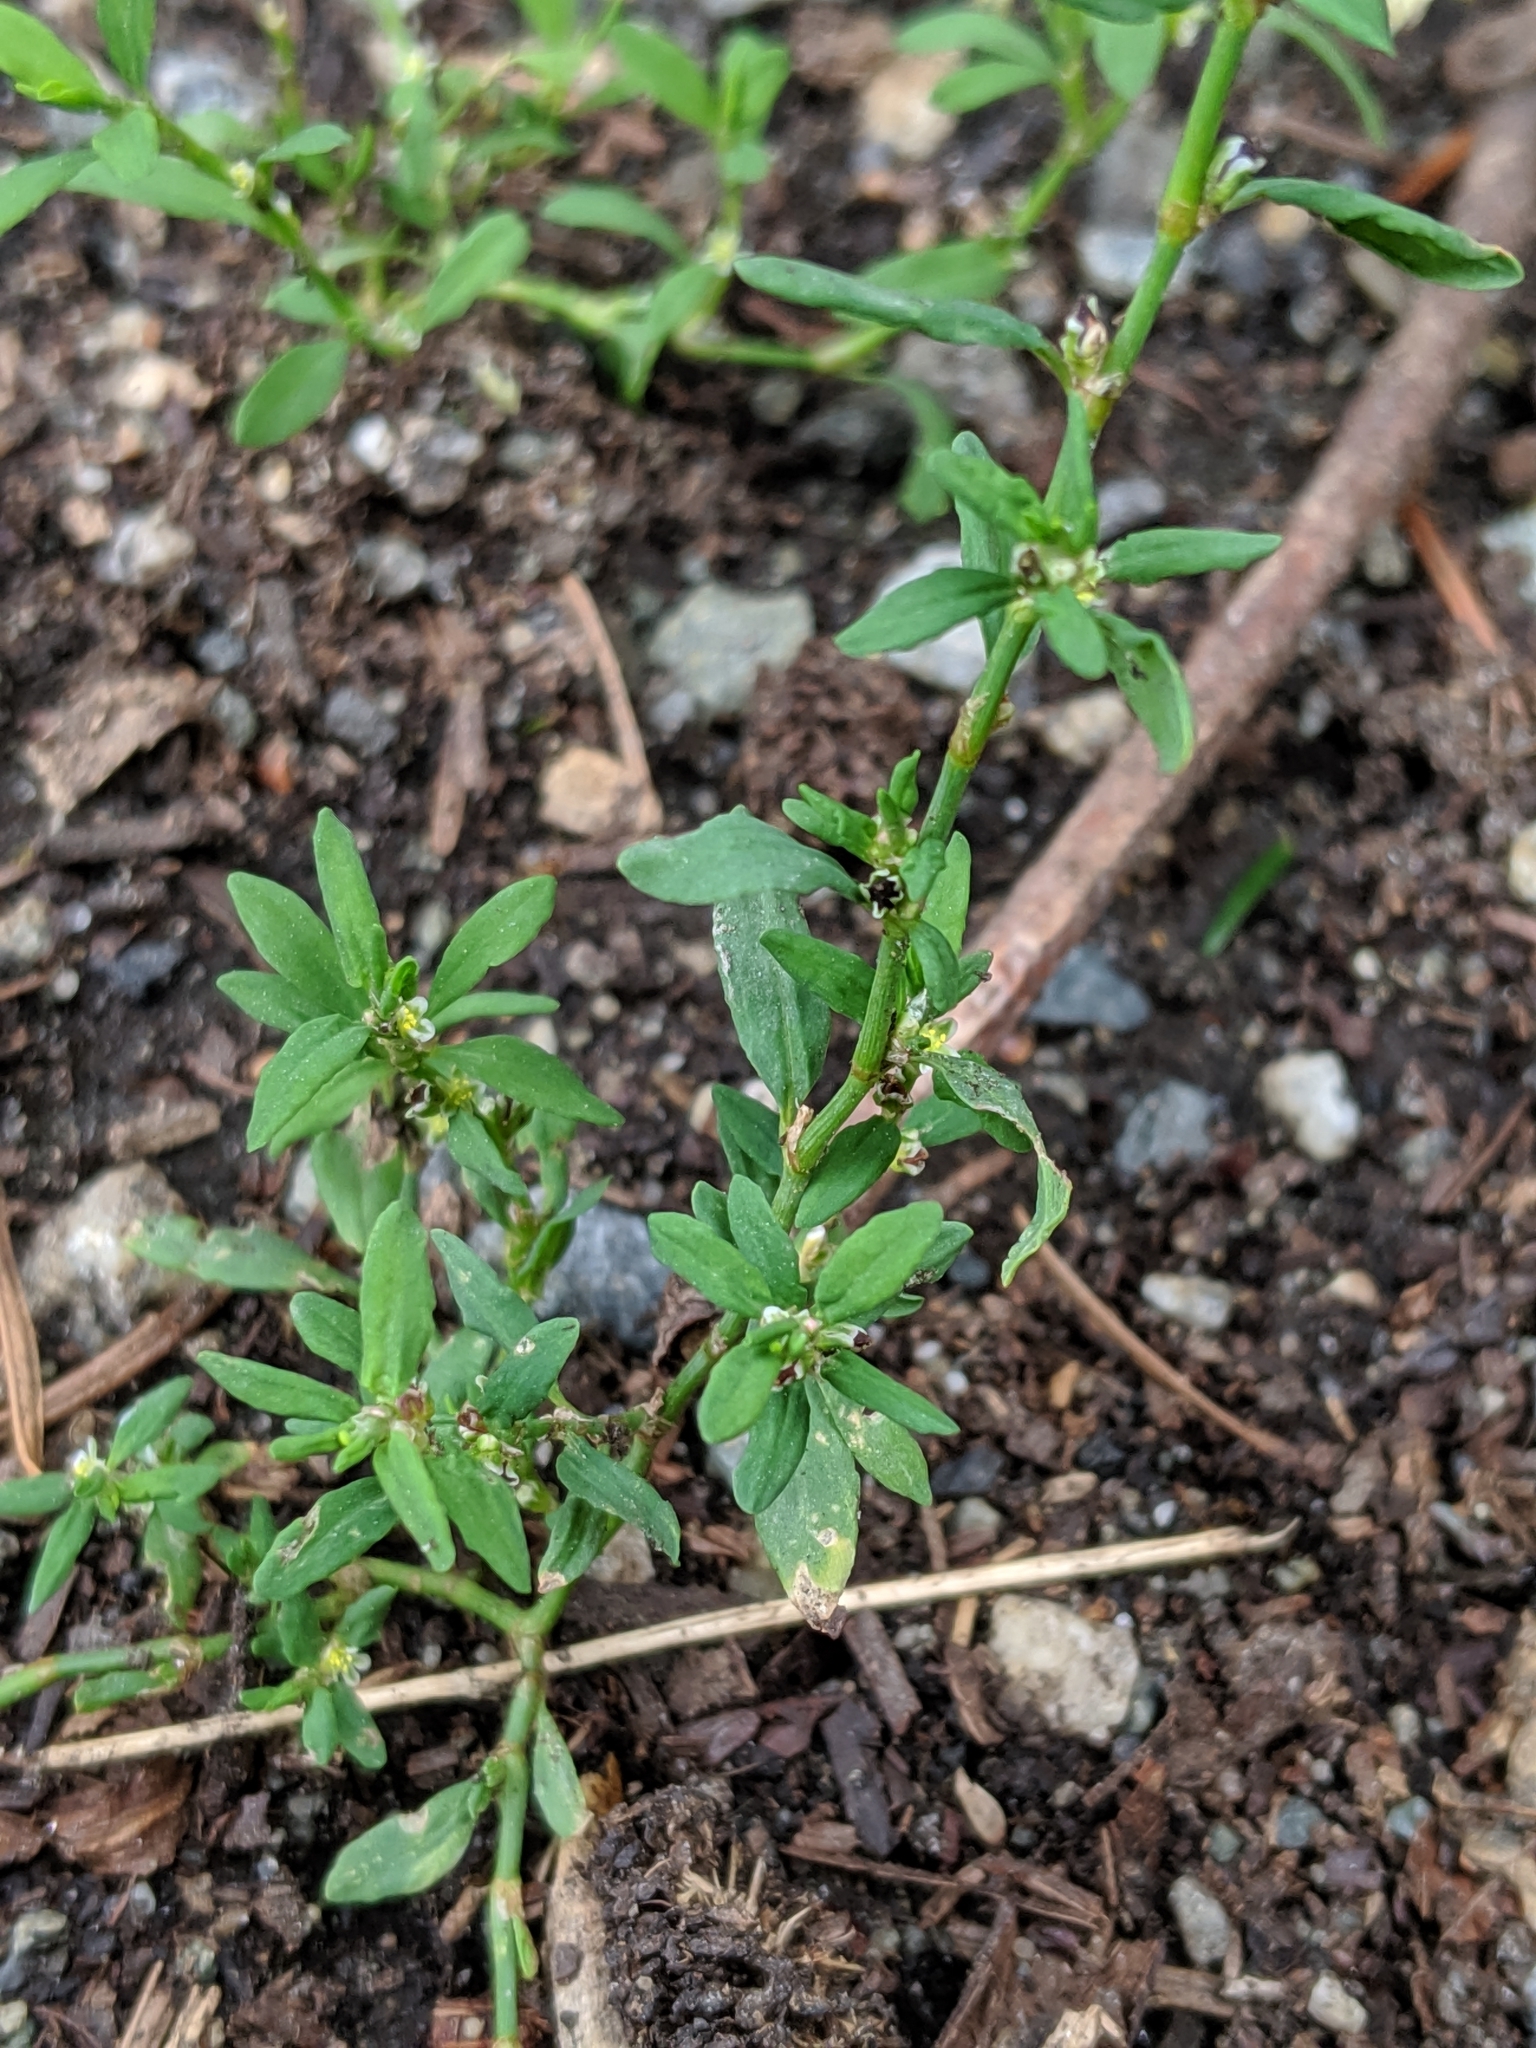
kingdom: Plantae
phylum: Tracheophyta
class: Magnoliopsida
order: Caryophyllales
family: Polygonaceae
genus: Polygonum
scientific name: Polygonum aviculare
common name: Prostrate knotweed
